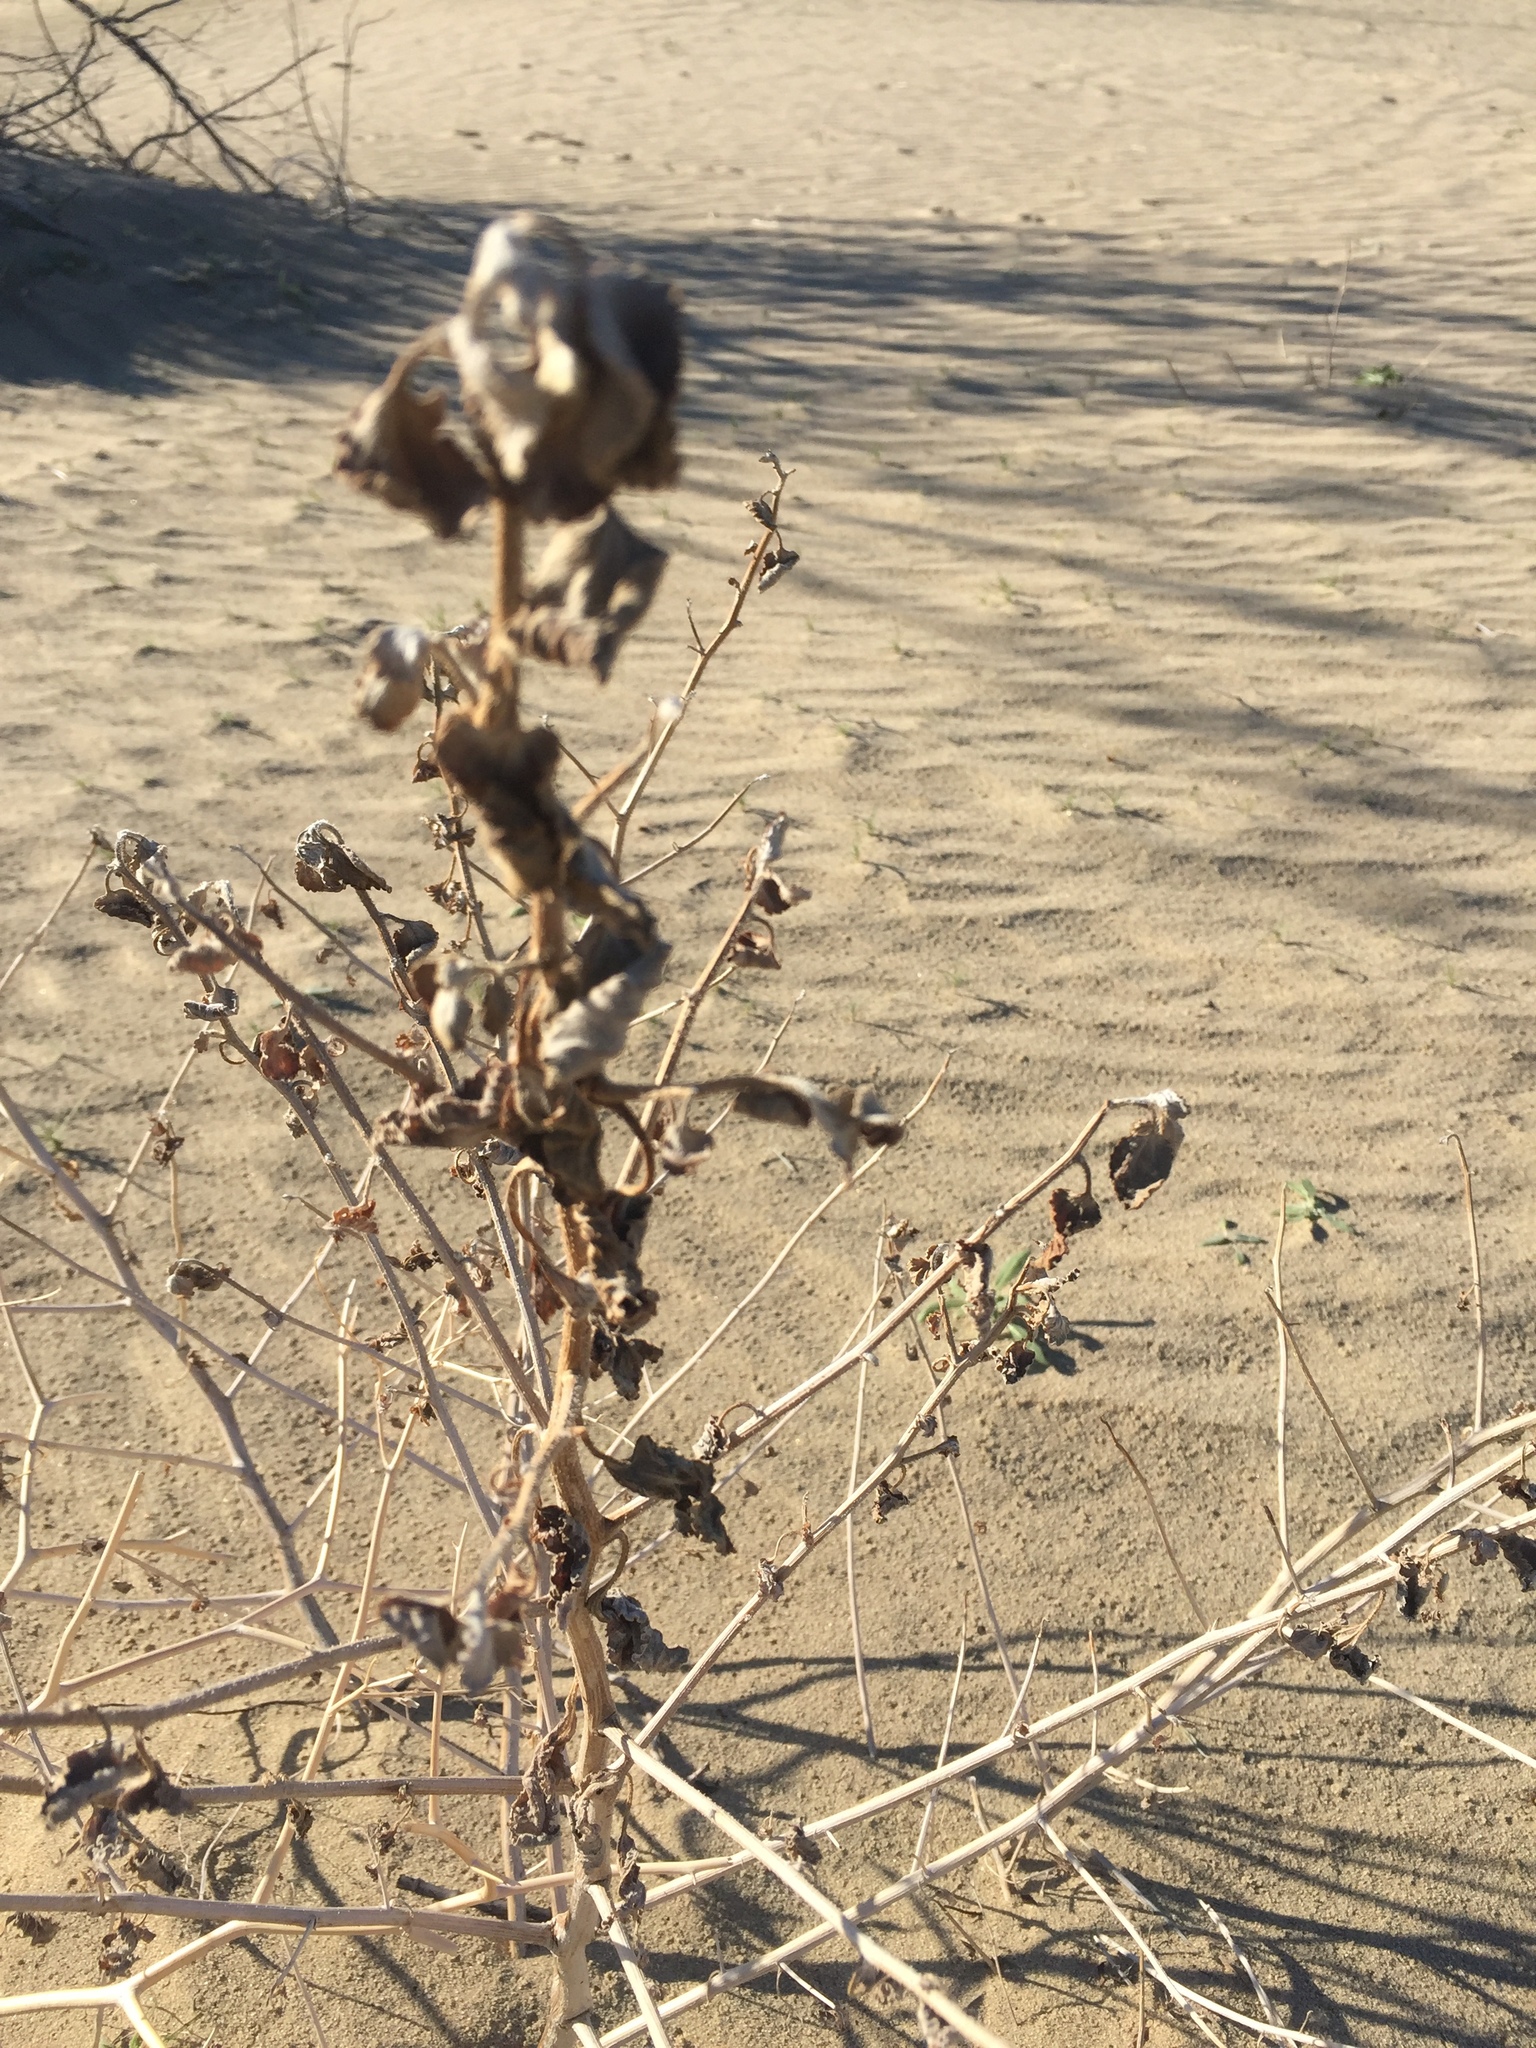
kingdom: Plantae
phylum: Tracheophyta
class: Magnoliopsida
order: Asterales
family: Asteraceae
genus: Dicoria
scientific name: Dicoria canescens
